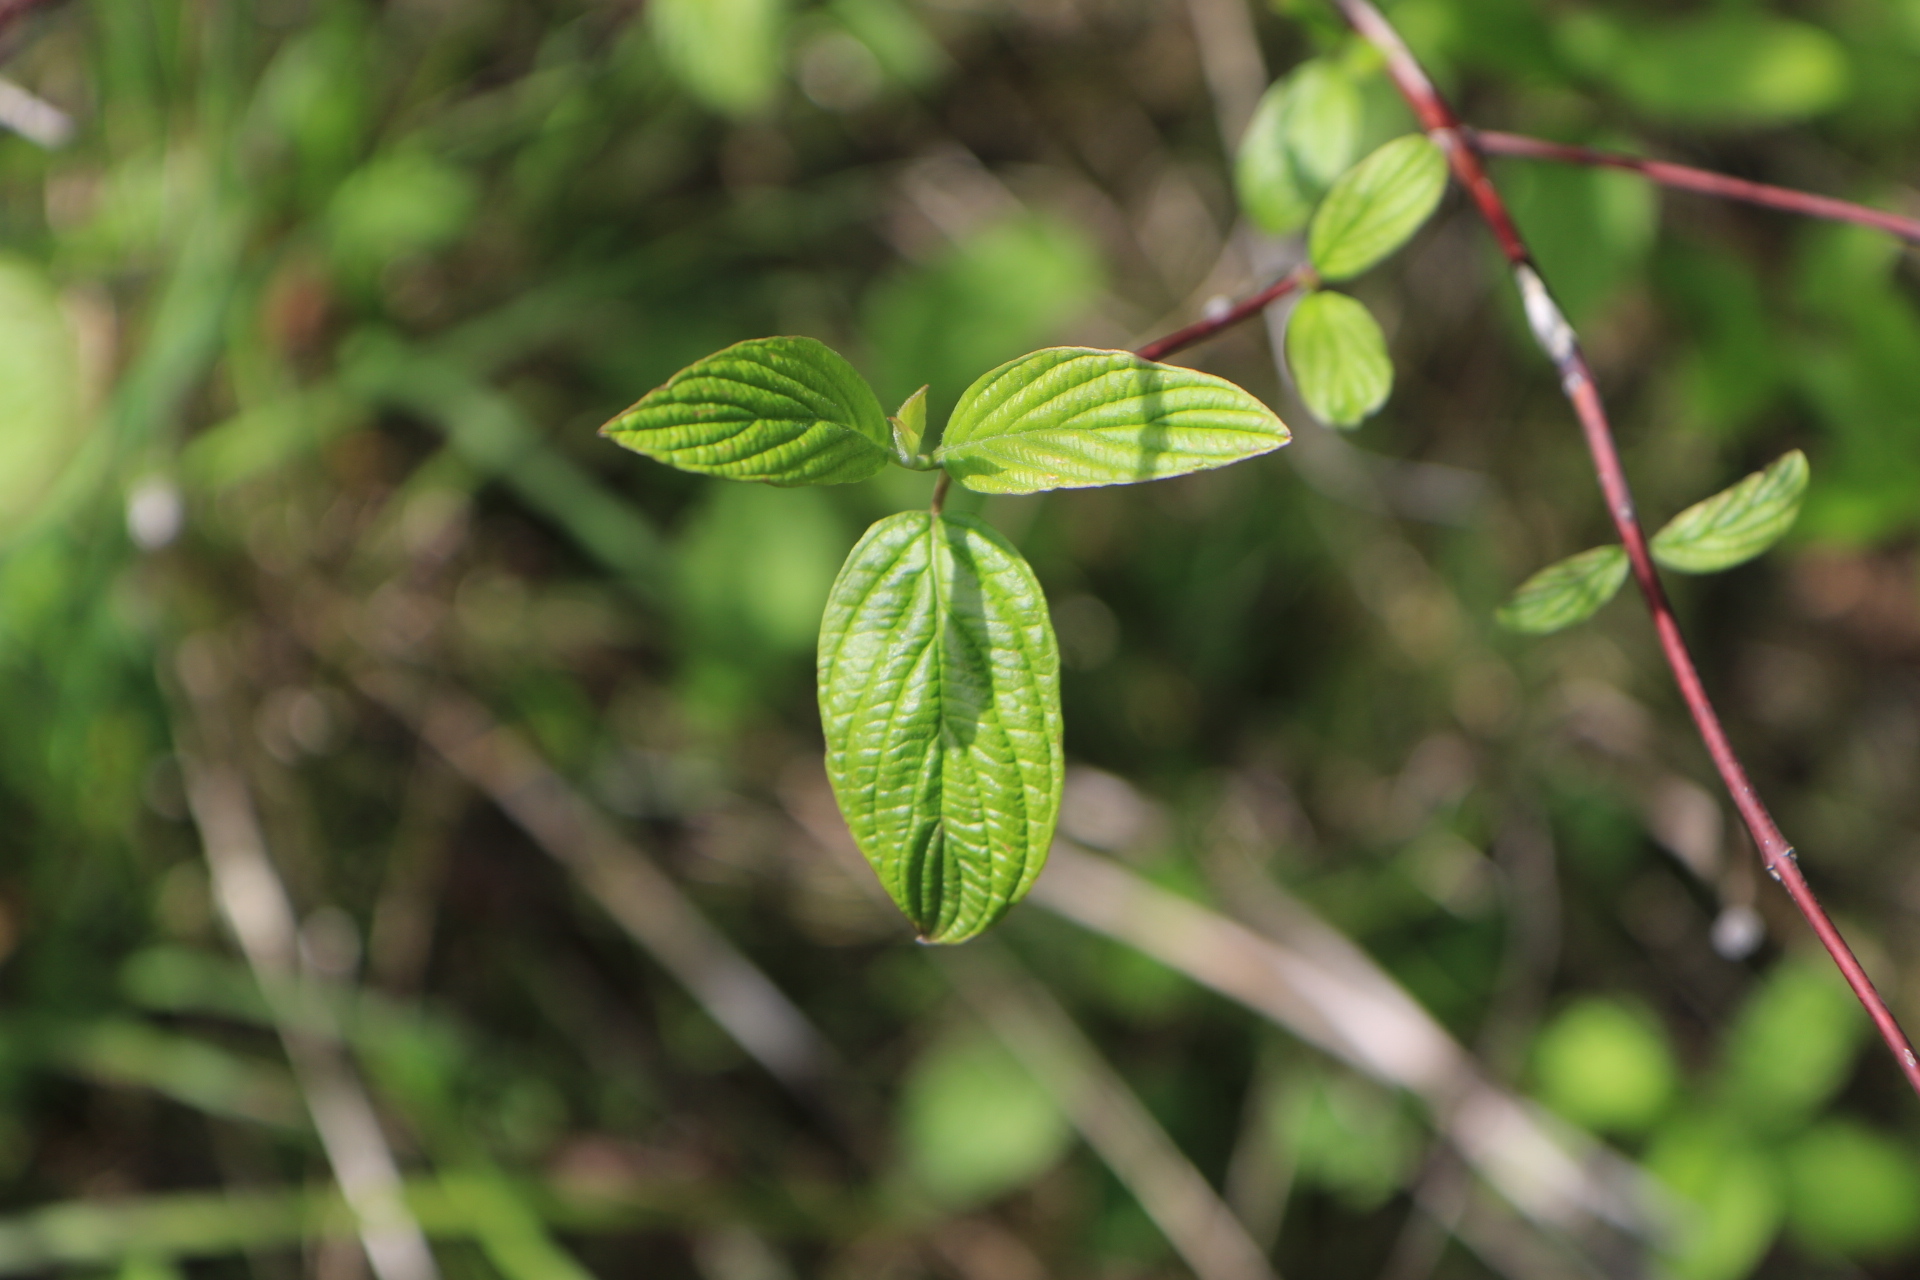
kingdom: Plantae
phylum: Tracheophyta
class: Magnoliopsida
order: Cornales
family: Cornaceae
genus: Cornus
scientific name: Cornus sericea
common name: Red-osier dogwood
